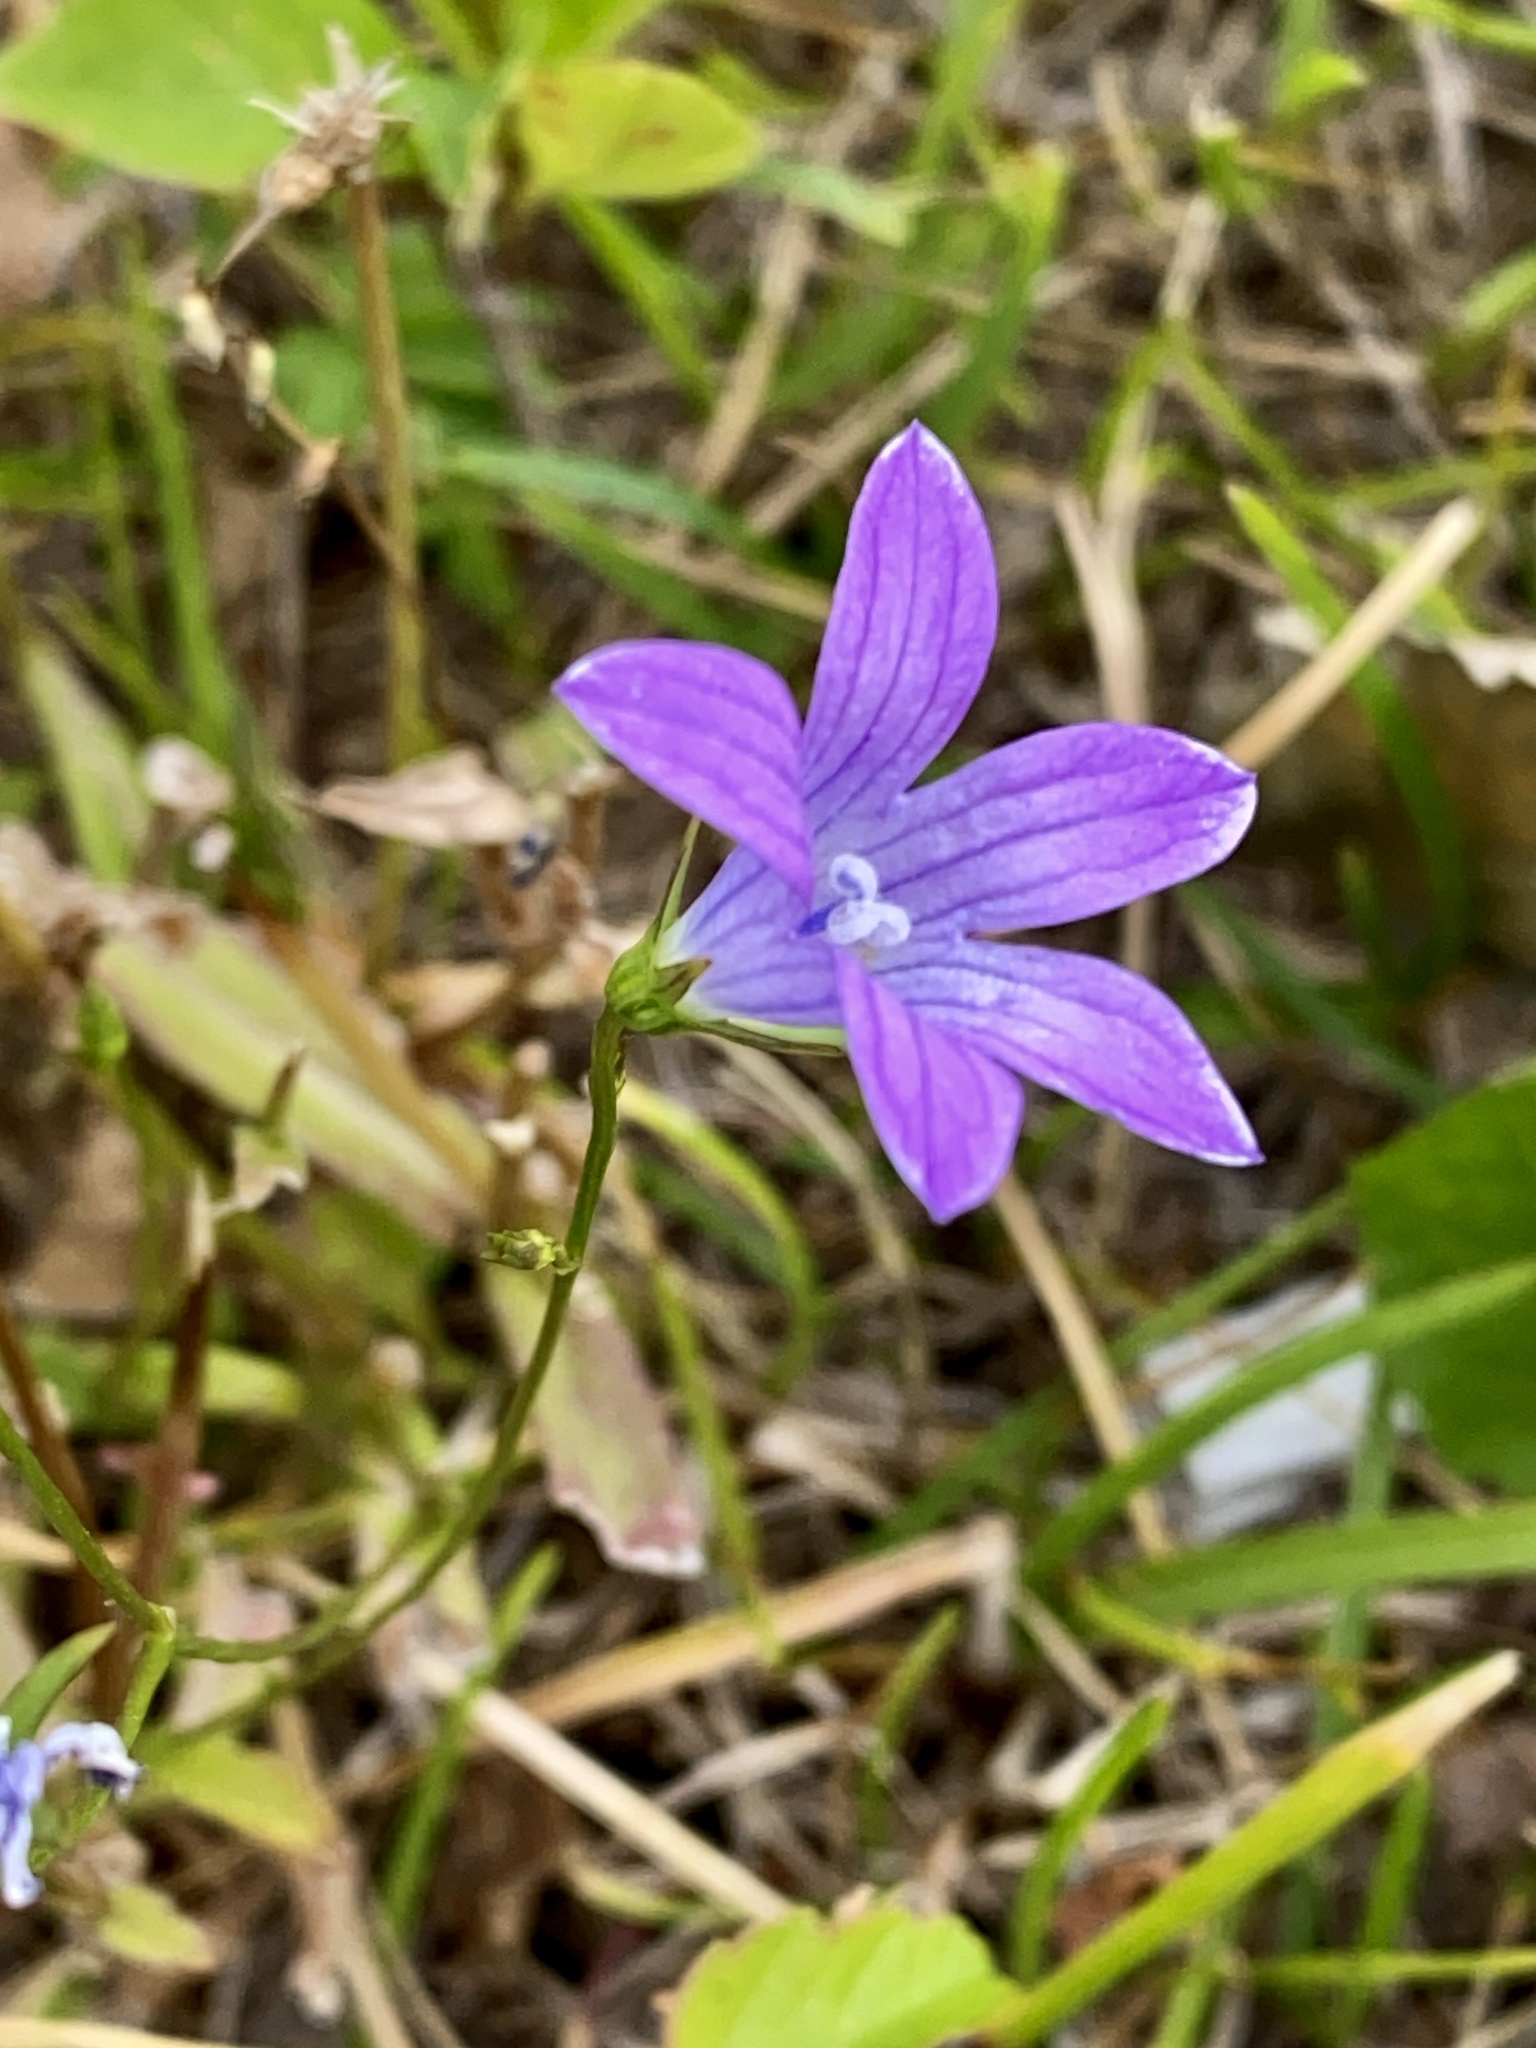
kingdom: Plantae
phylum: Tracheophyta
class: Magnoliopsida
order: Asterales
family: Campanulaceae
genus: Campanula
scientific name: Campanula patula
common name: Spreading bellflower
